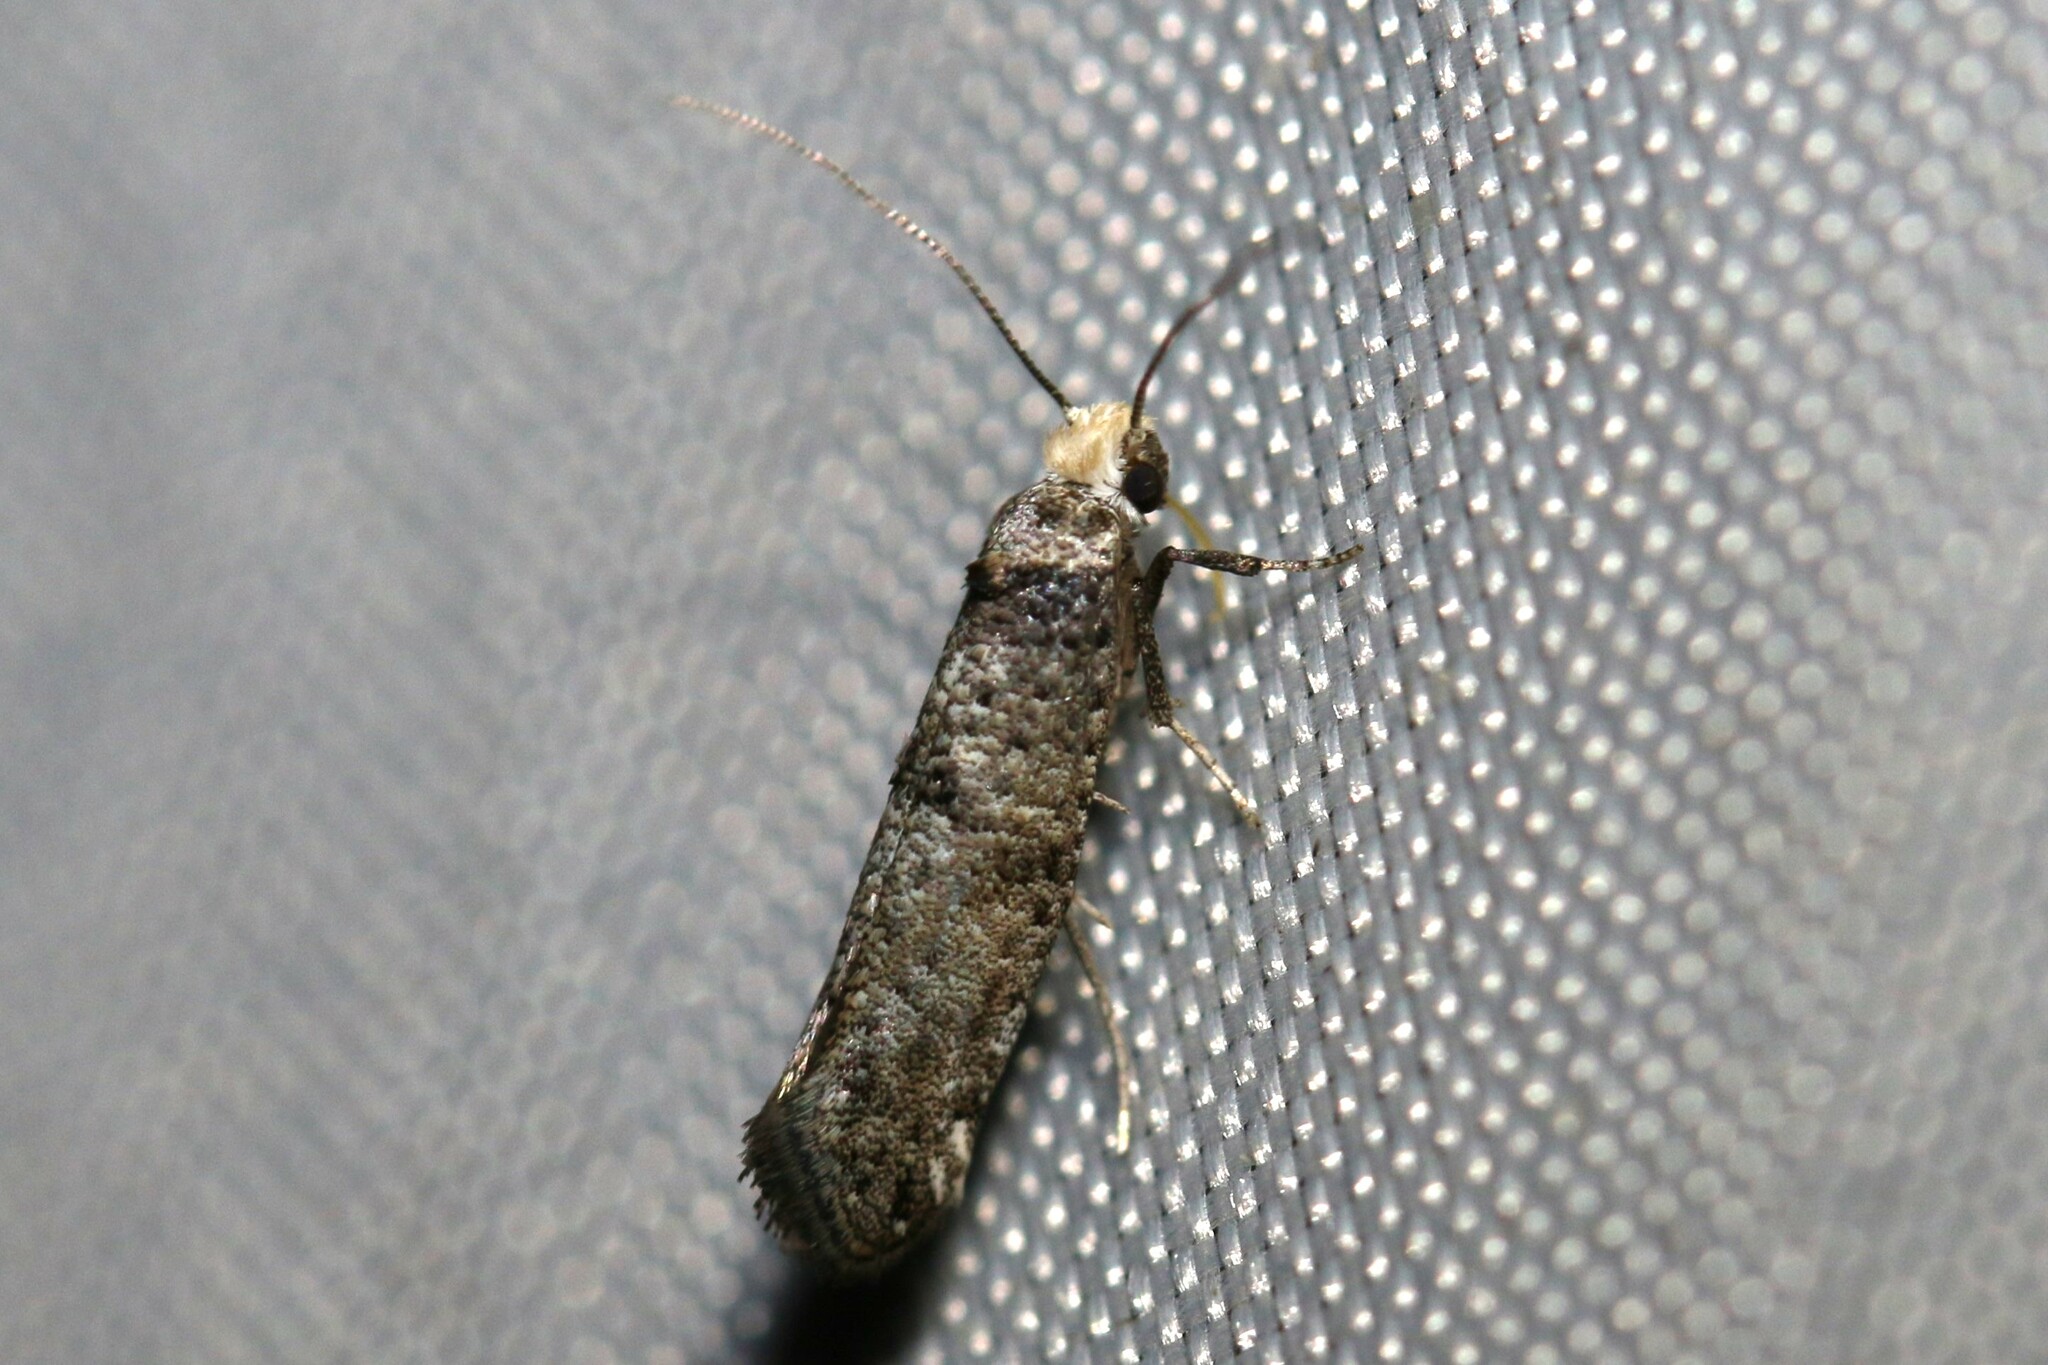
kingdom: Animalia
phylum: Arthropoda
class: Insecta
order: Lepidoptera
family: Yponomeutidae
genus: Paraswammerdamia
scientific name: Paraswammerdamia lutarea
